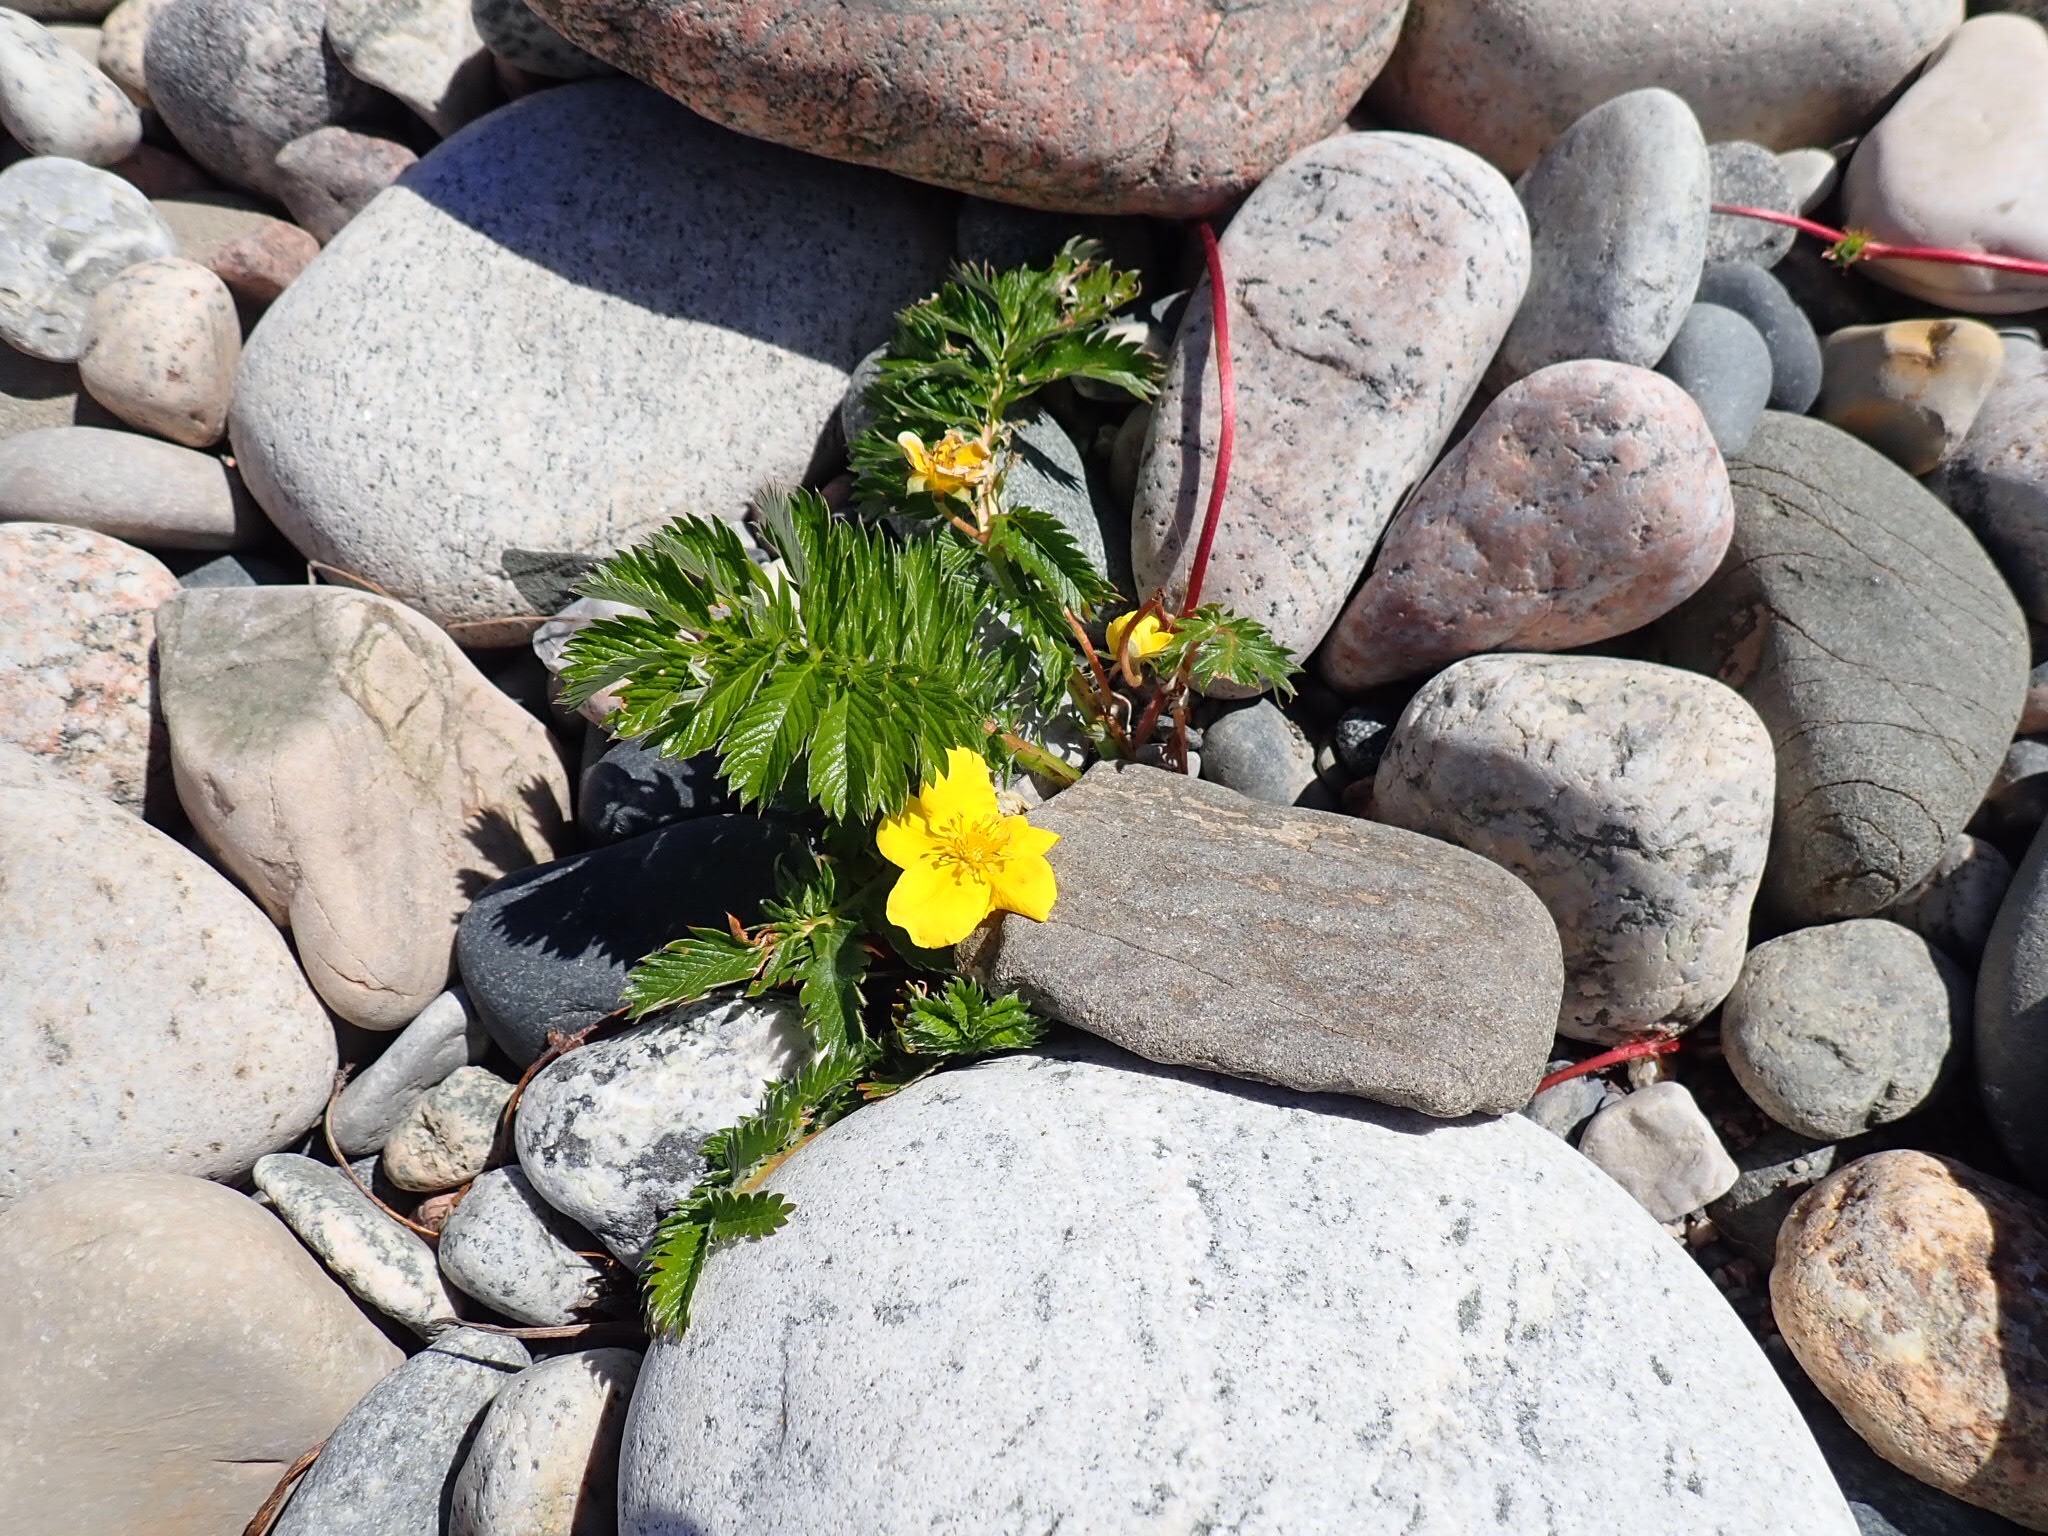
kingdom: Plantae
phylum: Tracheophyta
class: Magnoliopsida
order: Rosales
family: Rosaceae
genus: Argentina
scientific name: Argentina anserina
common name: Common silverweed
